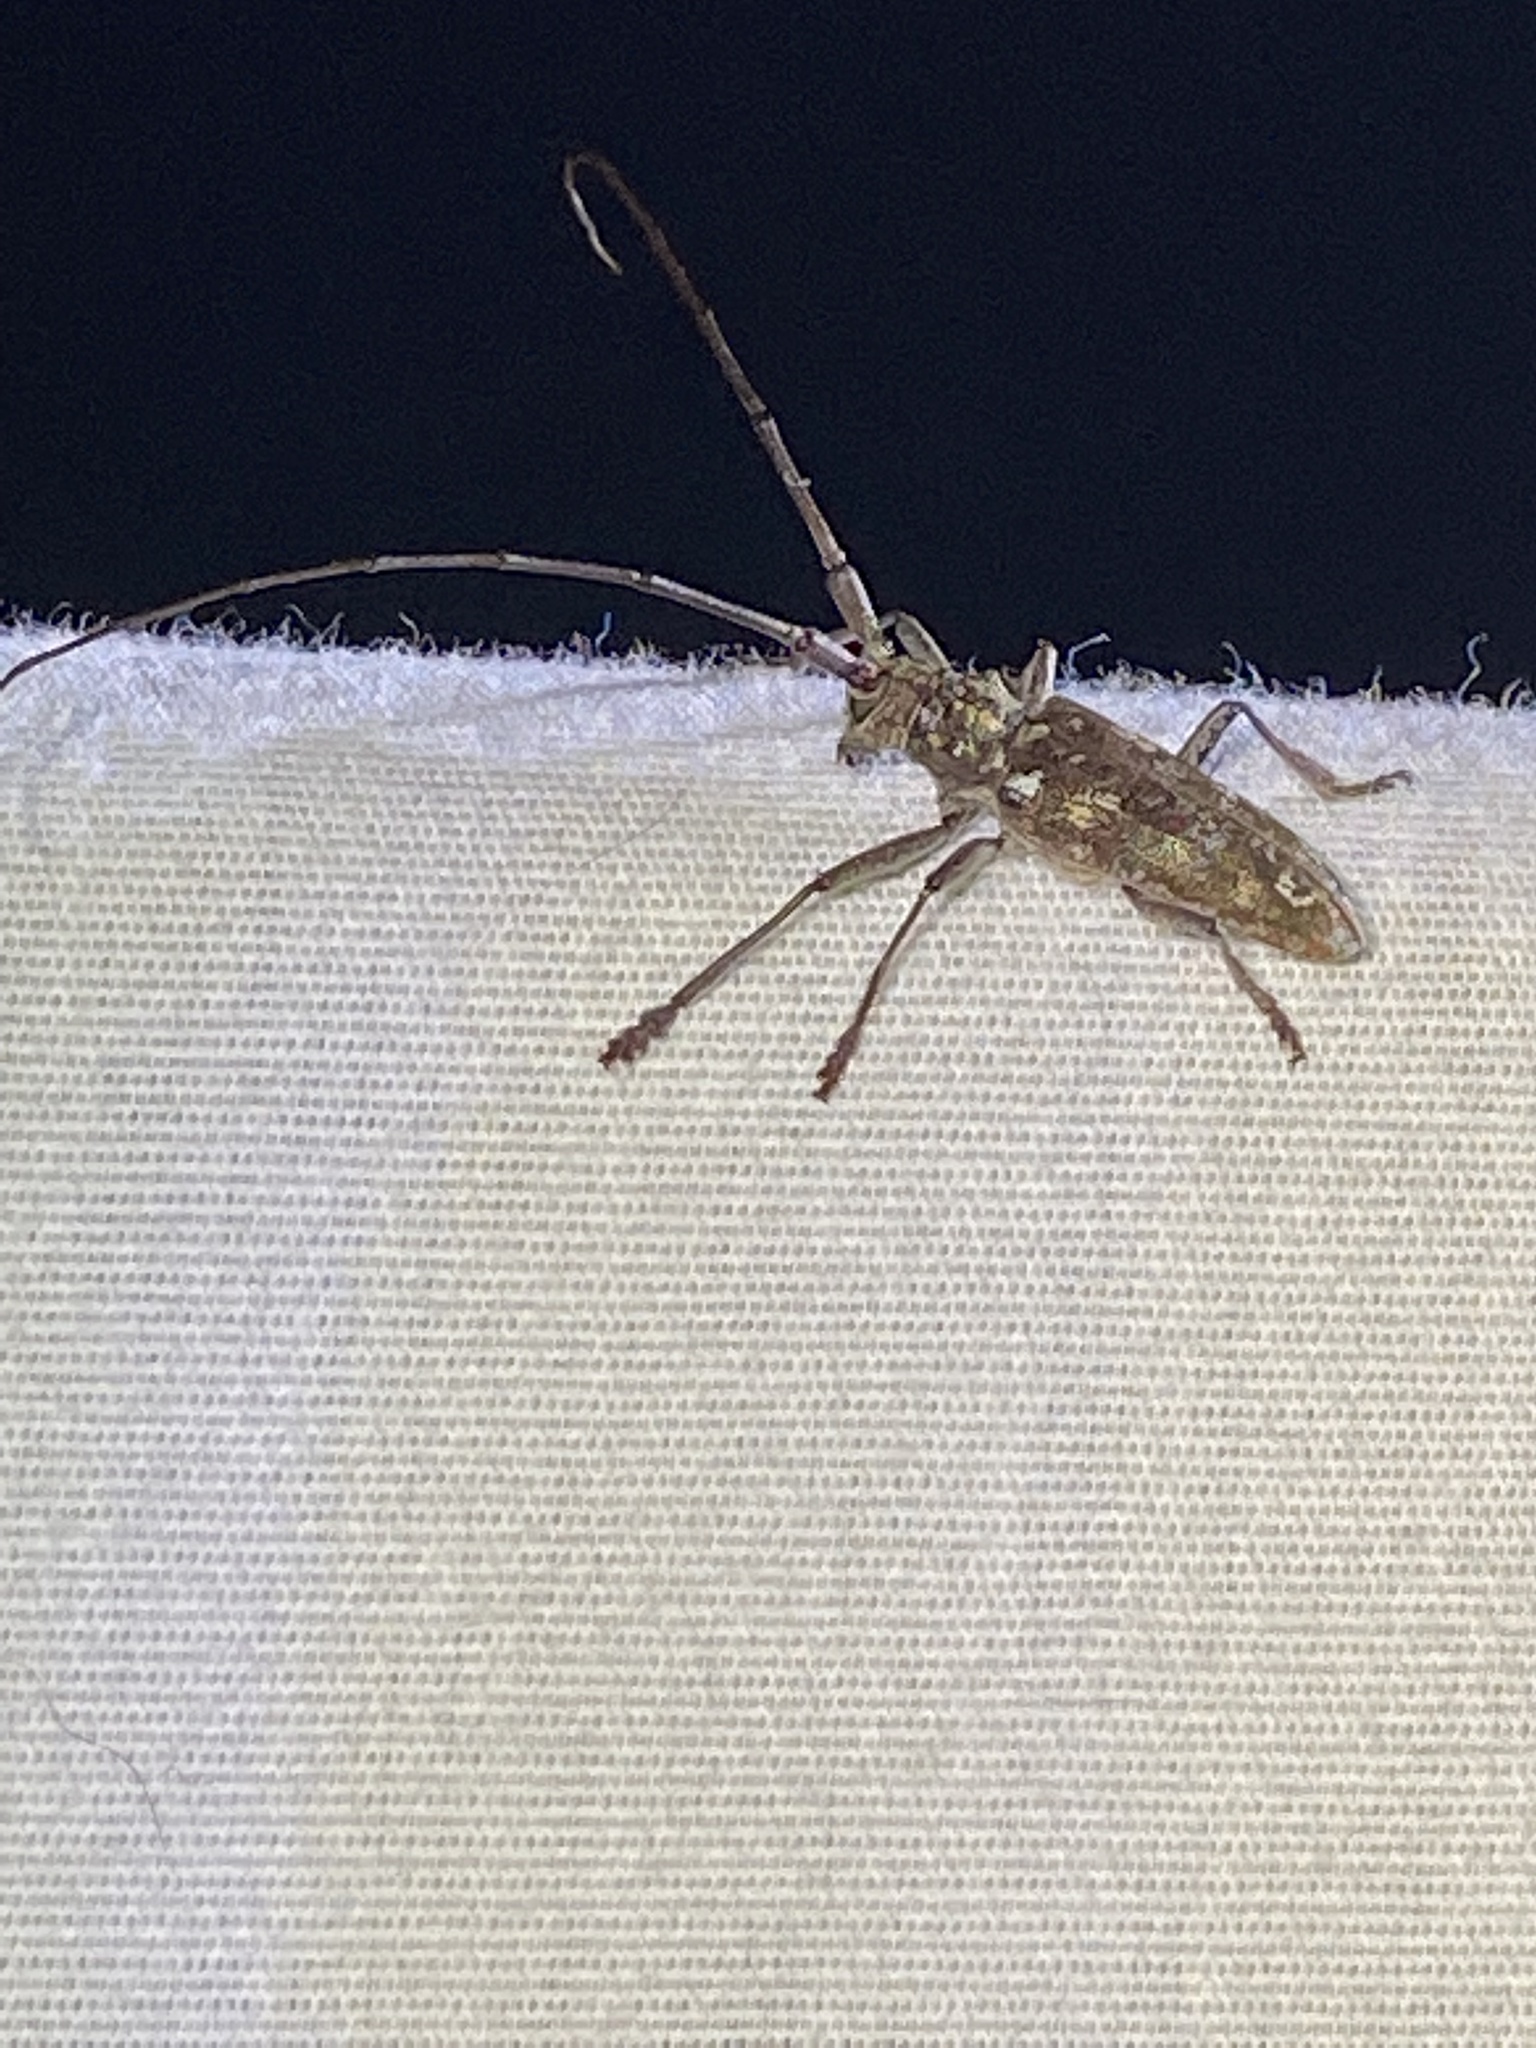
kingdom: Animalia
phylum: Arthropoda
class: Insecta
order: Coleoptera
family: Cerambycidae
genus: Monochamus
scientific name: Monochamus carolinensis
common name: Carolina pine sawyer
